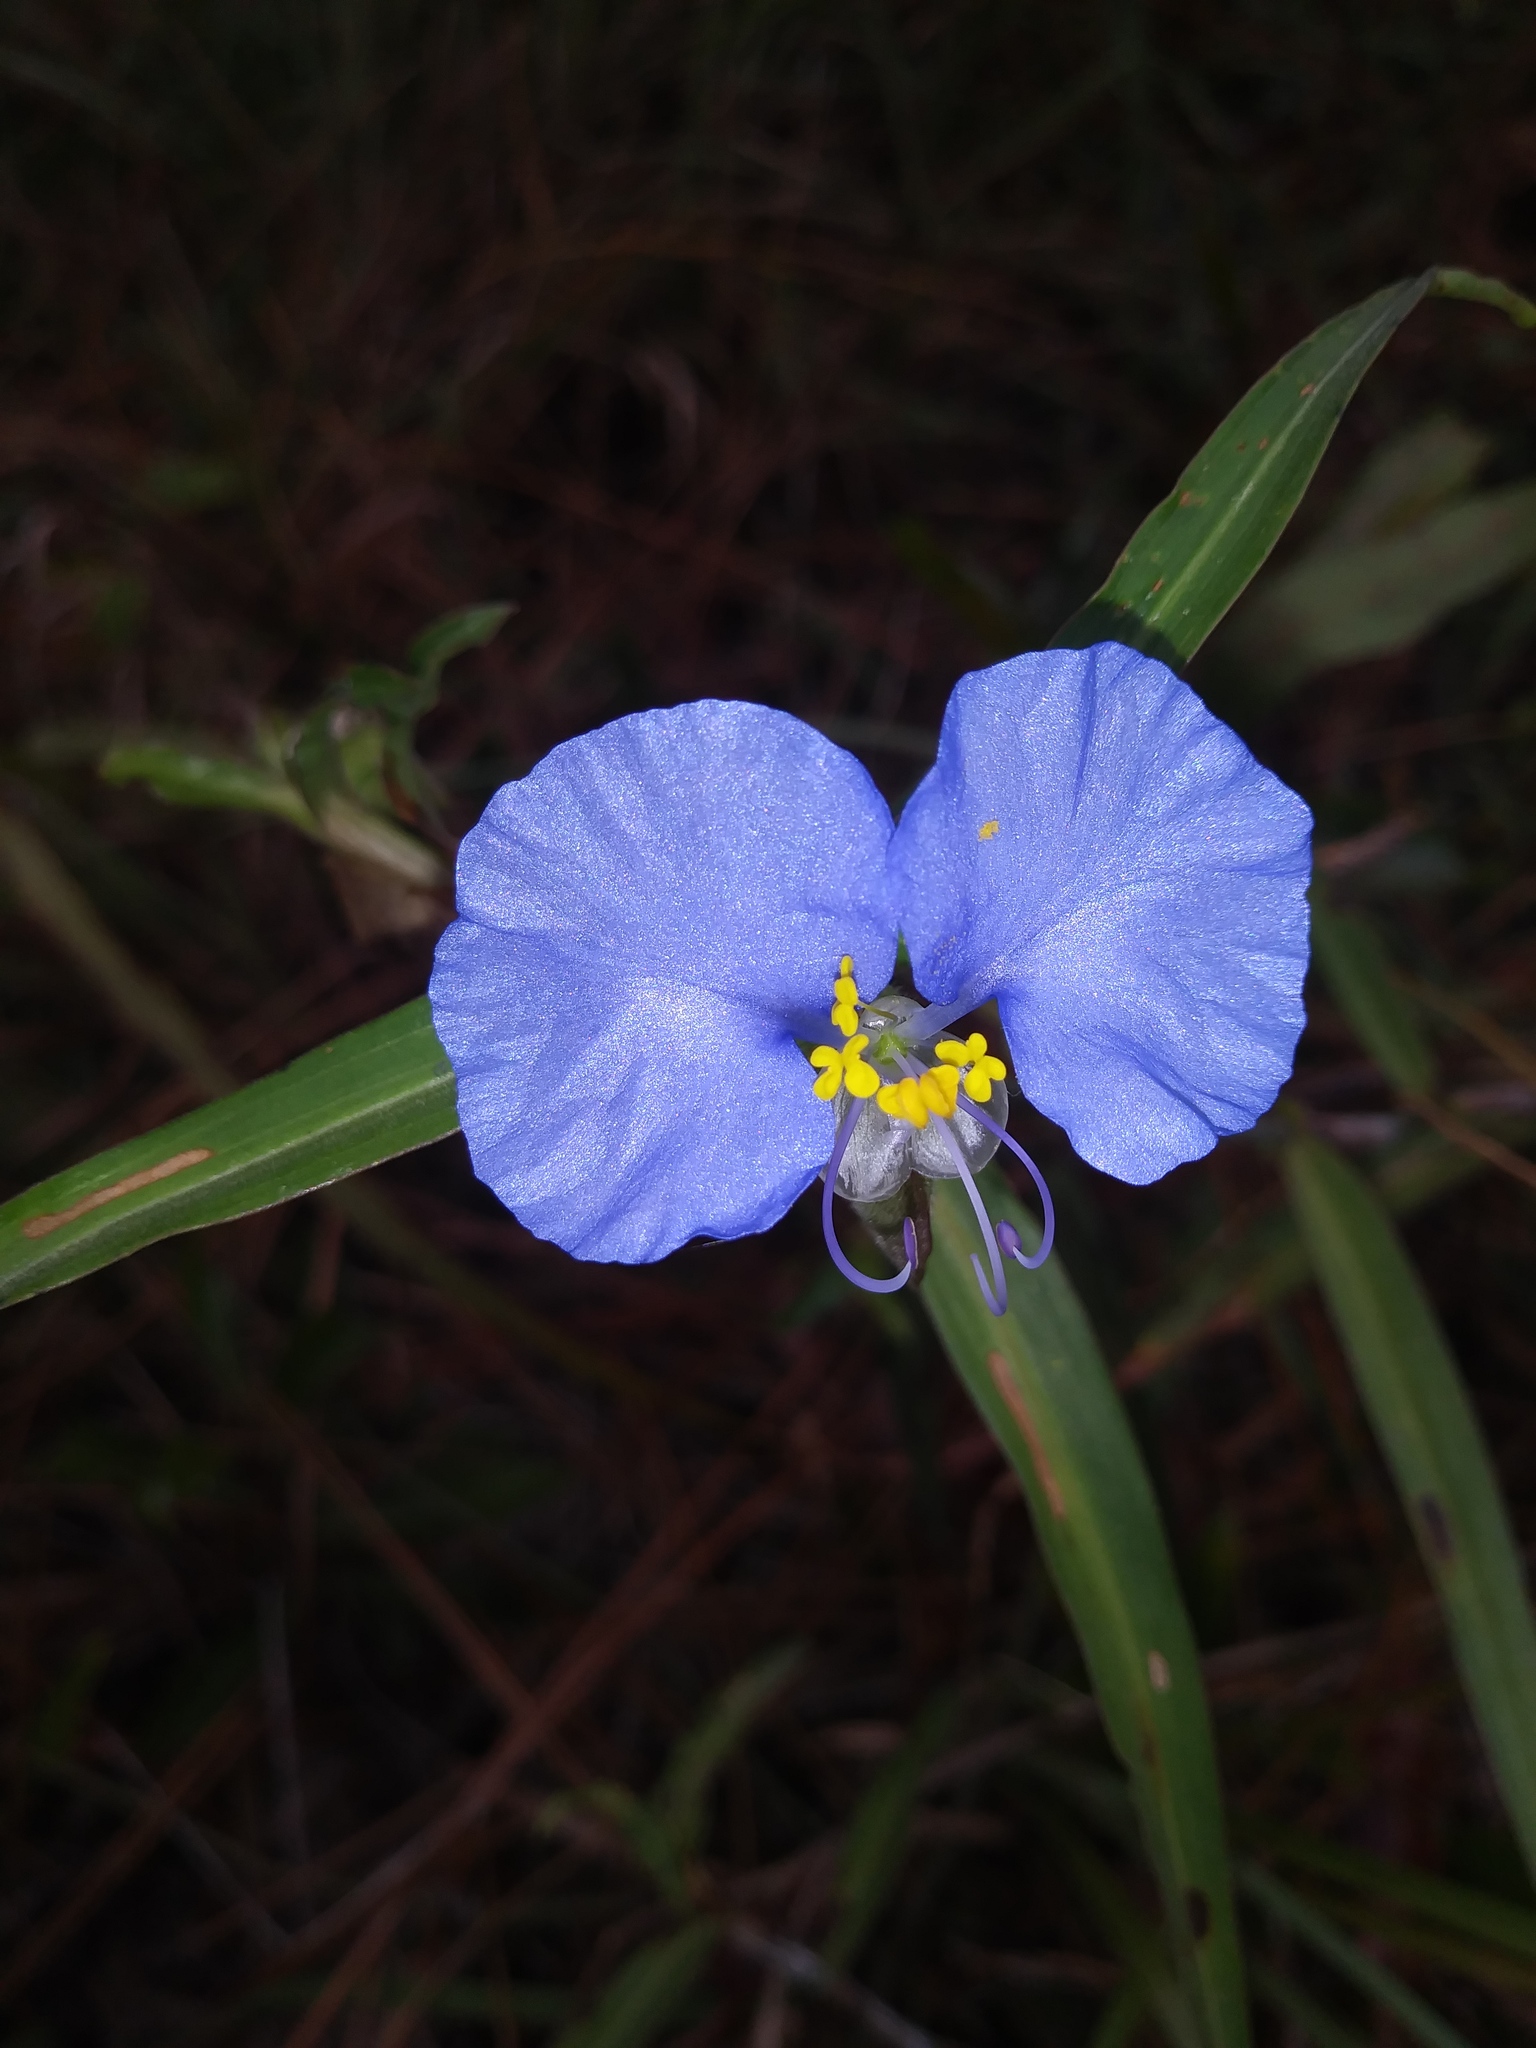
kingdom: Plantae
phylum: Tracheophyta
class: Liliopsida
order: Commelinales
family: Commelinaceae
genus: Commelina
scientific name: Commelina erecta
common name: Blousel blommetjie
